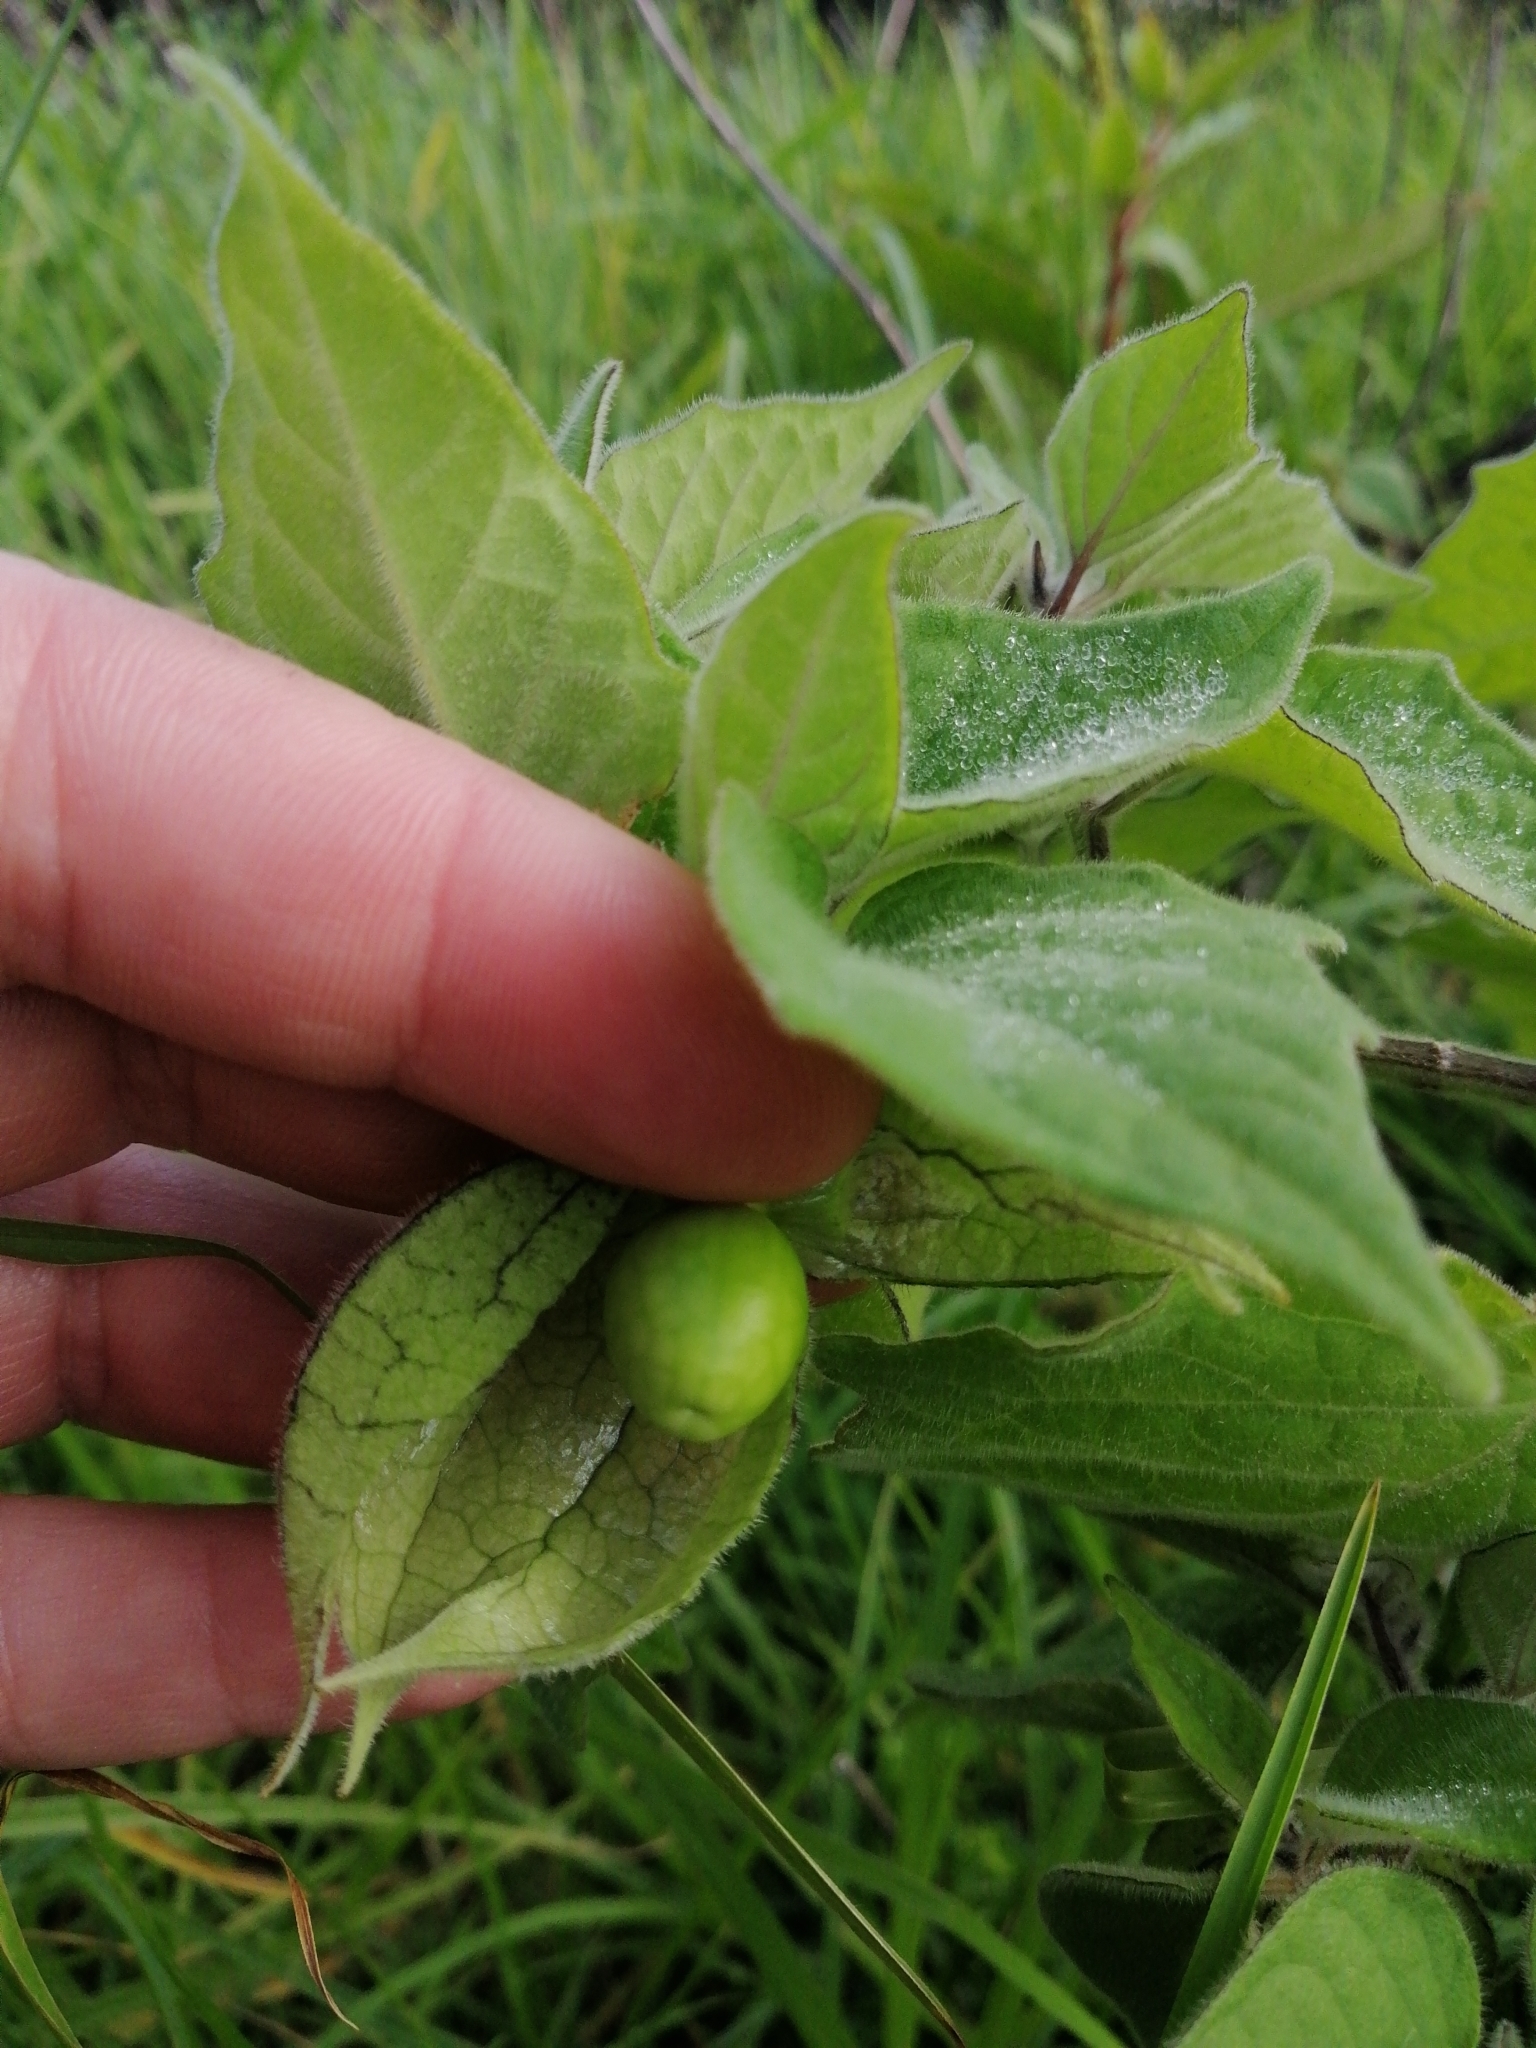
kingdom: Plantae
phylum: Tracheophyta
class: Magnoliopsida
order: Solanales
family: Solanaceae
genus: Physalis
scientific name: Physalis peruviana
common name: Cape-gooseberry
